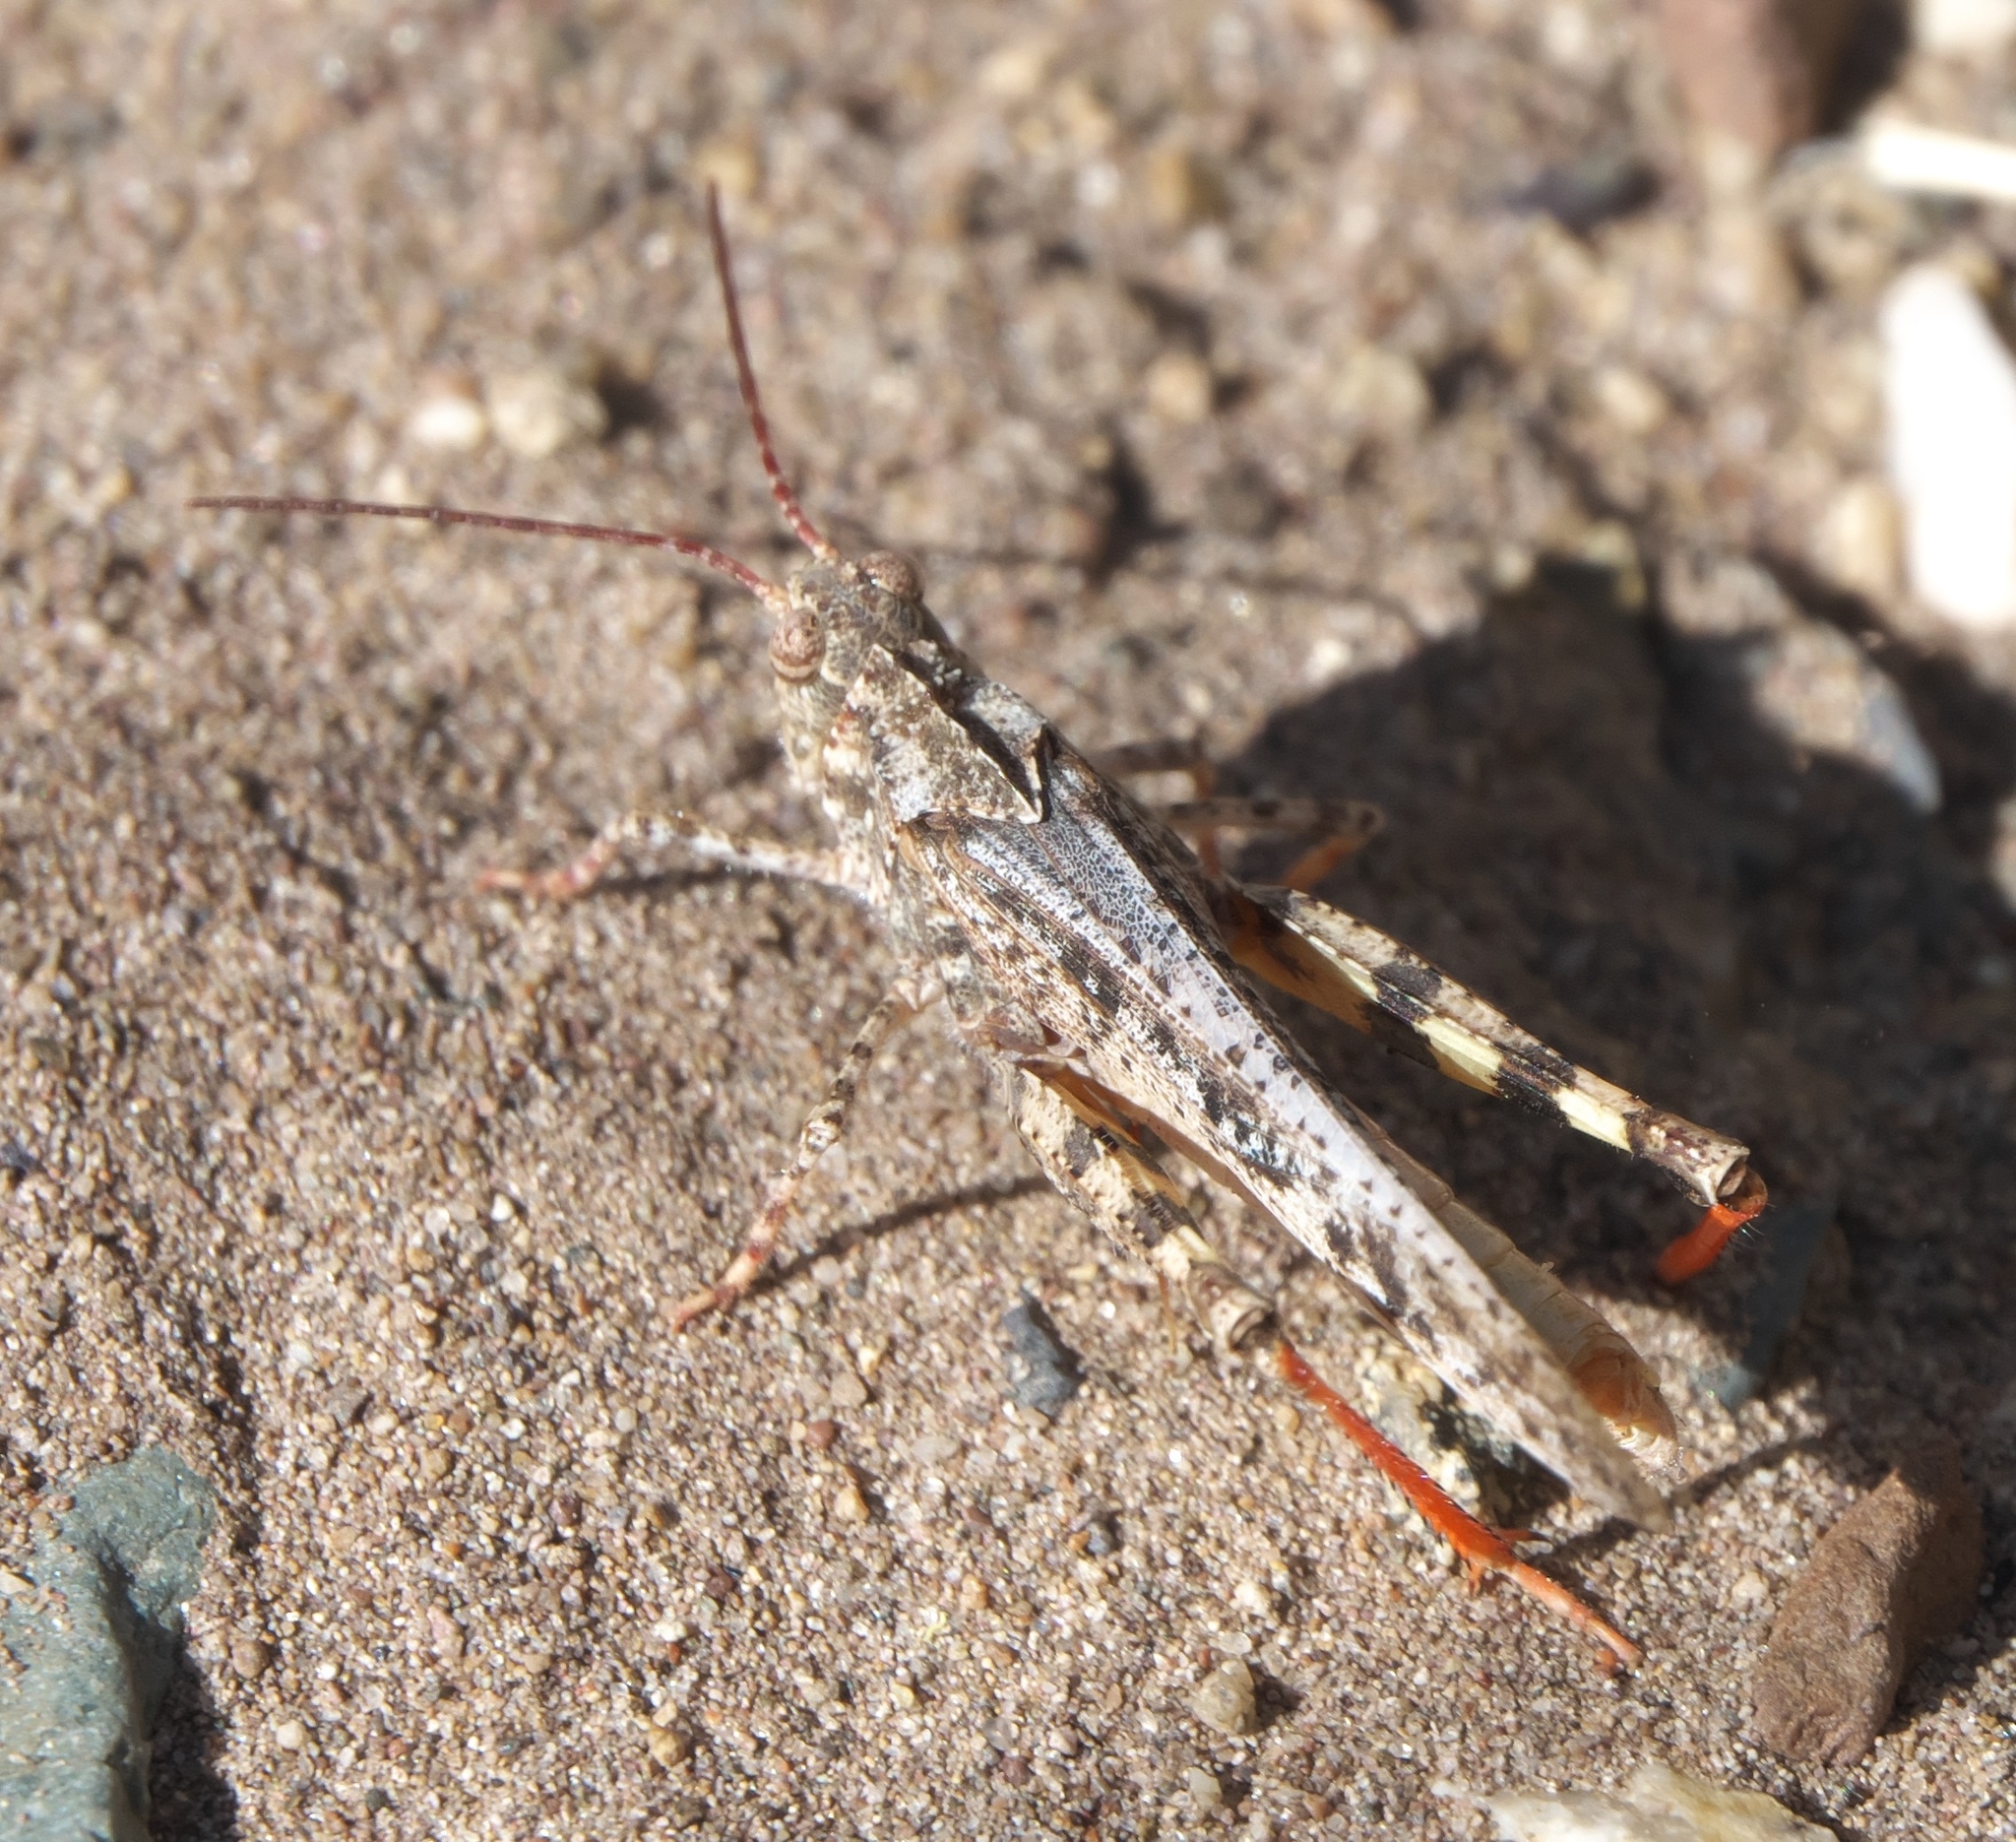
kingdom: Animalia
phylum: Arthropoda
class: Insecta
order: Orthoptera
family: Acrididae
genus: Spharagemon
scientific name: Spharagemon collare
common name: Mottled sand grasshopper
